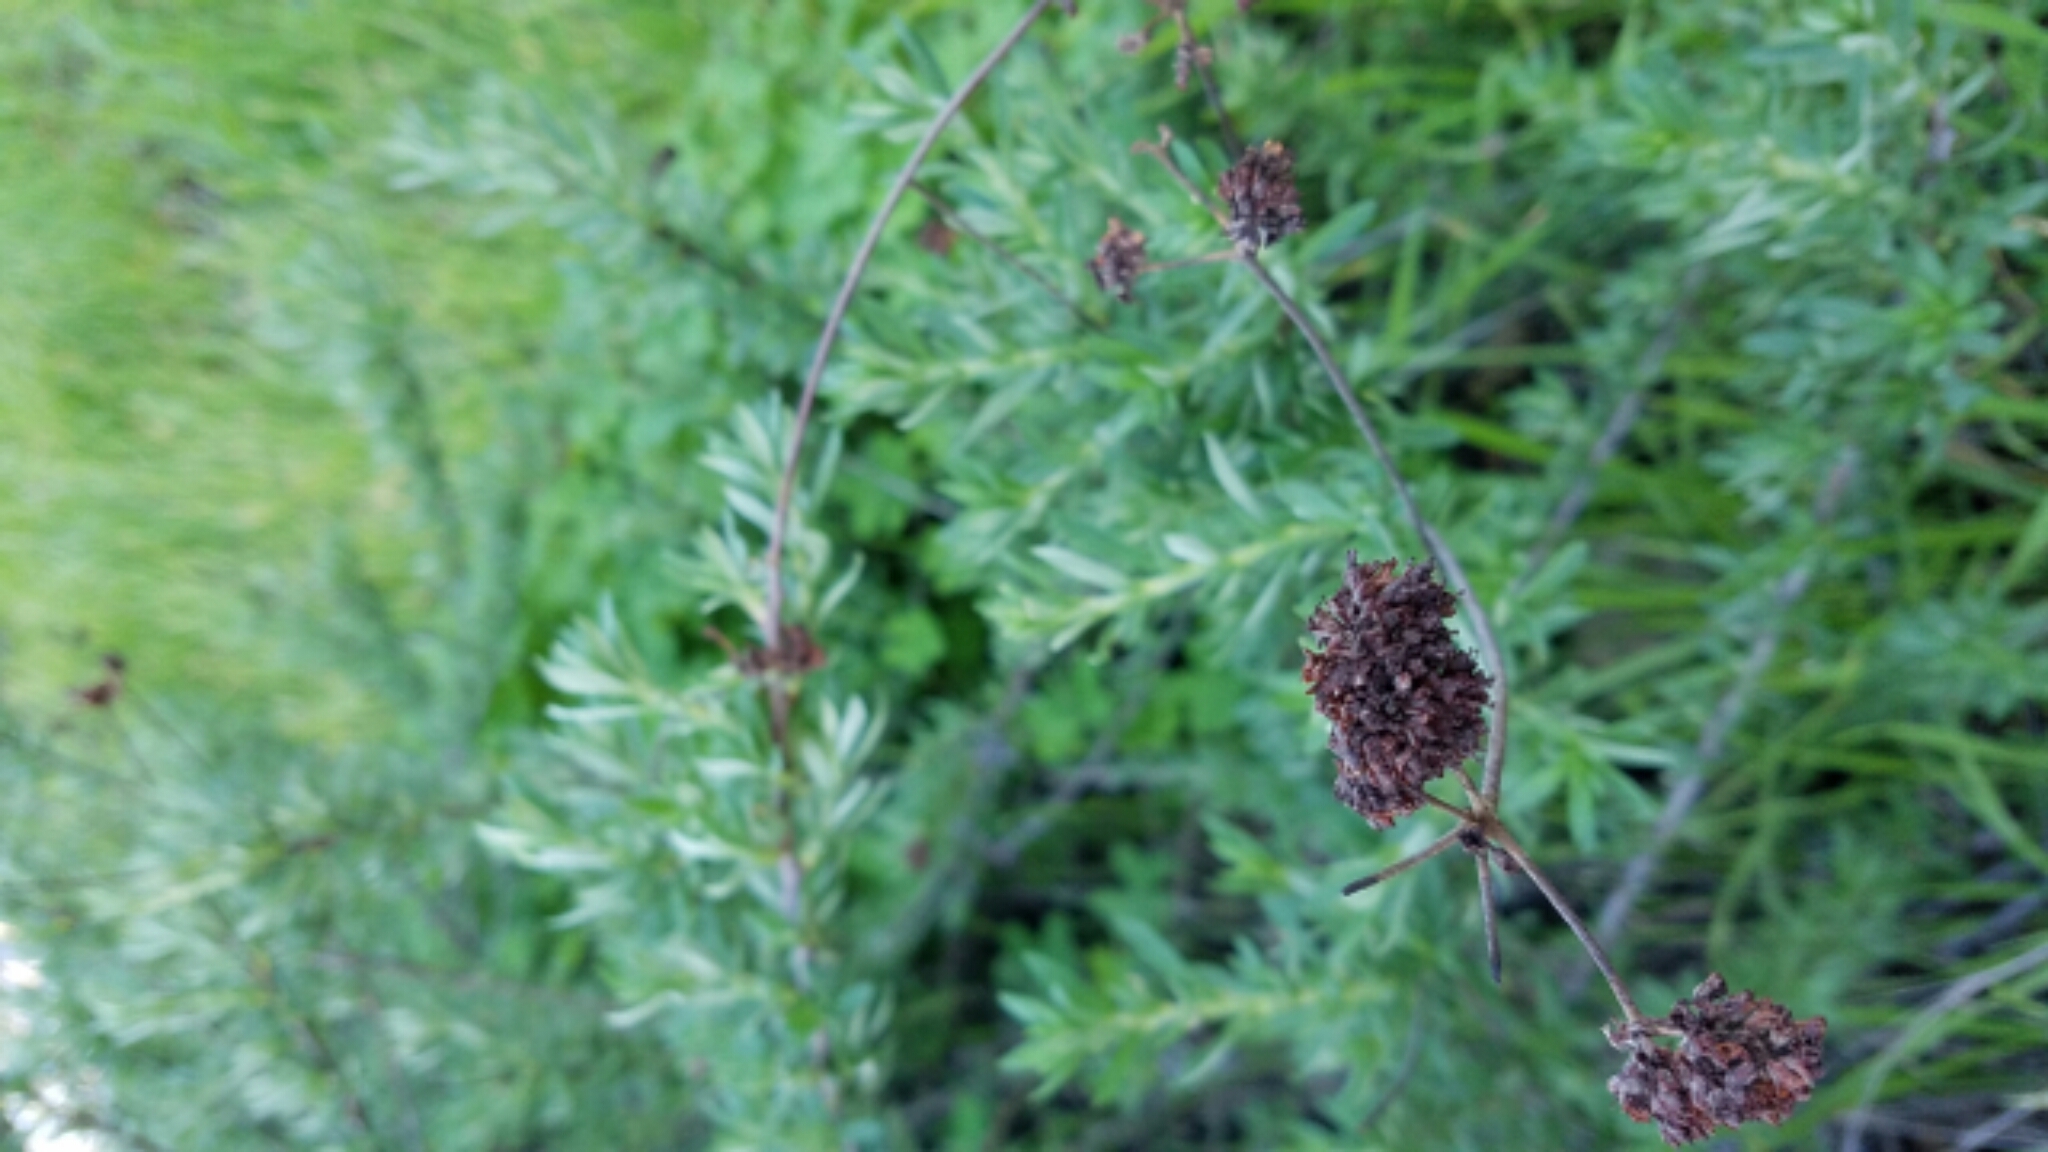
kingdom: Plantae
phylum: Tracheophyta
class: Magnoliopsida
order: Caryophyllales
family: Polygonaceae
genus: Eriogonum
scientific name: Eriogonum fasciculatum
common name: California wild buckwheat
